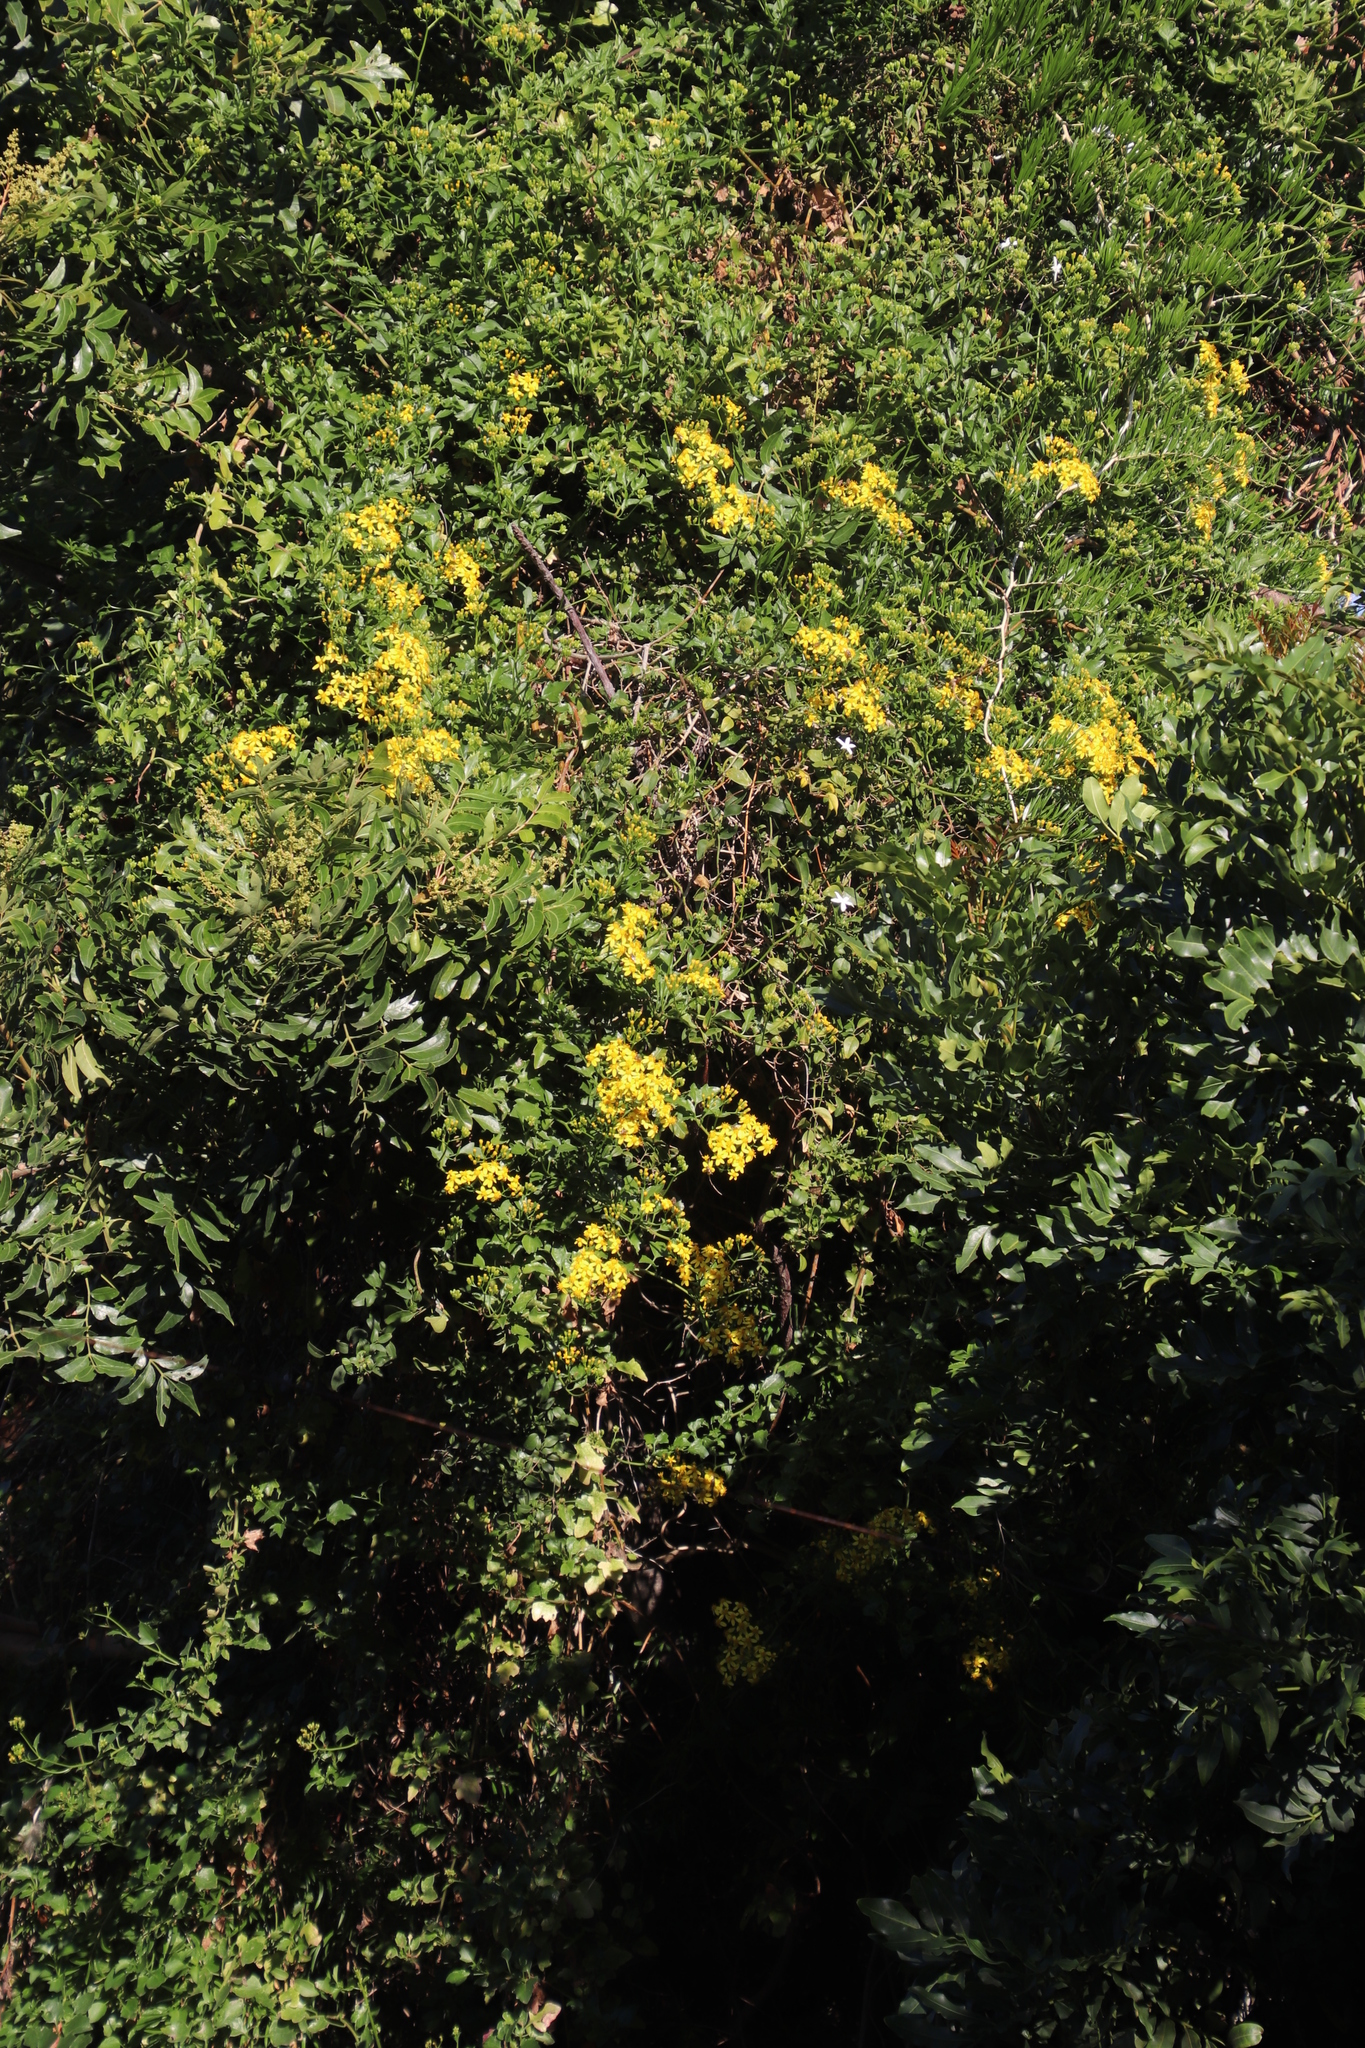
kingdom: Plantae
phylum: Tracheophyta
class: Magnoliopsida
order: Asterales
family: Asteraceae
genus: Senecio
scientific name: Senecio tamoides
